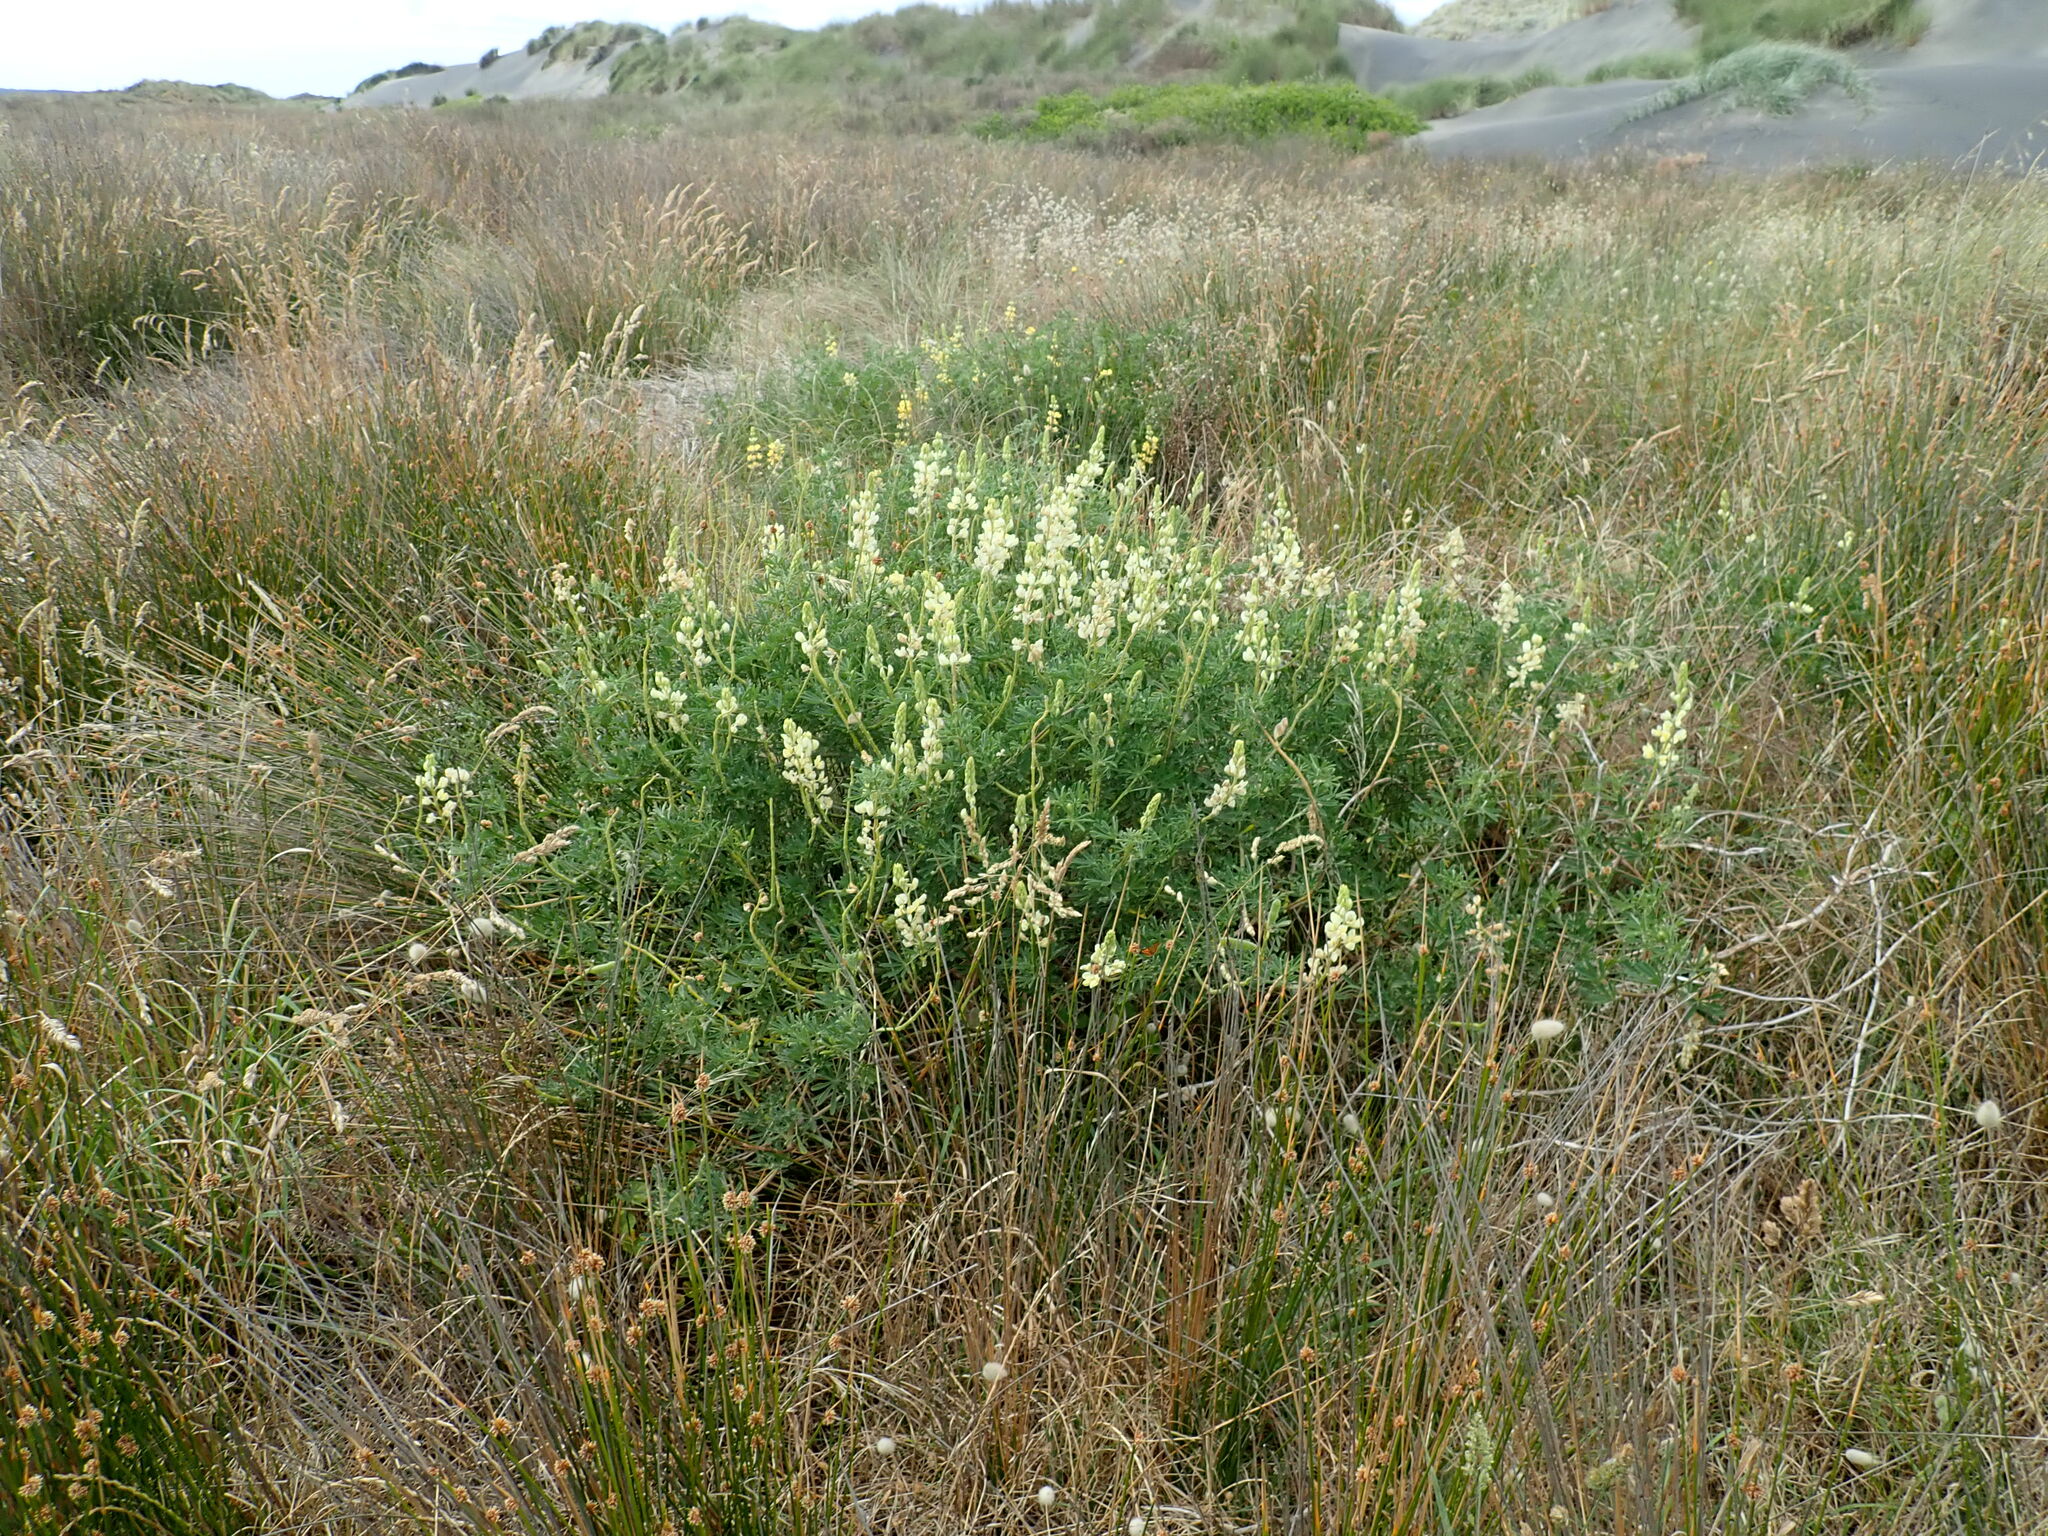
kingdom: Plantae
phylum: Tracheophyta
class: Magnoliopsida
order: Fabales
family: Fabaceae
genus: Lupinus
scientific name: Lupinus arboreus
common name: Yellow bush lupine
